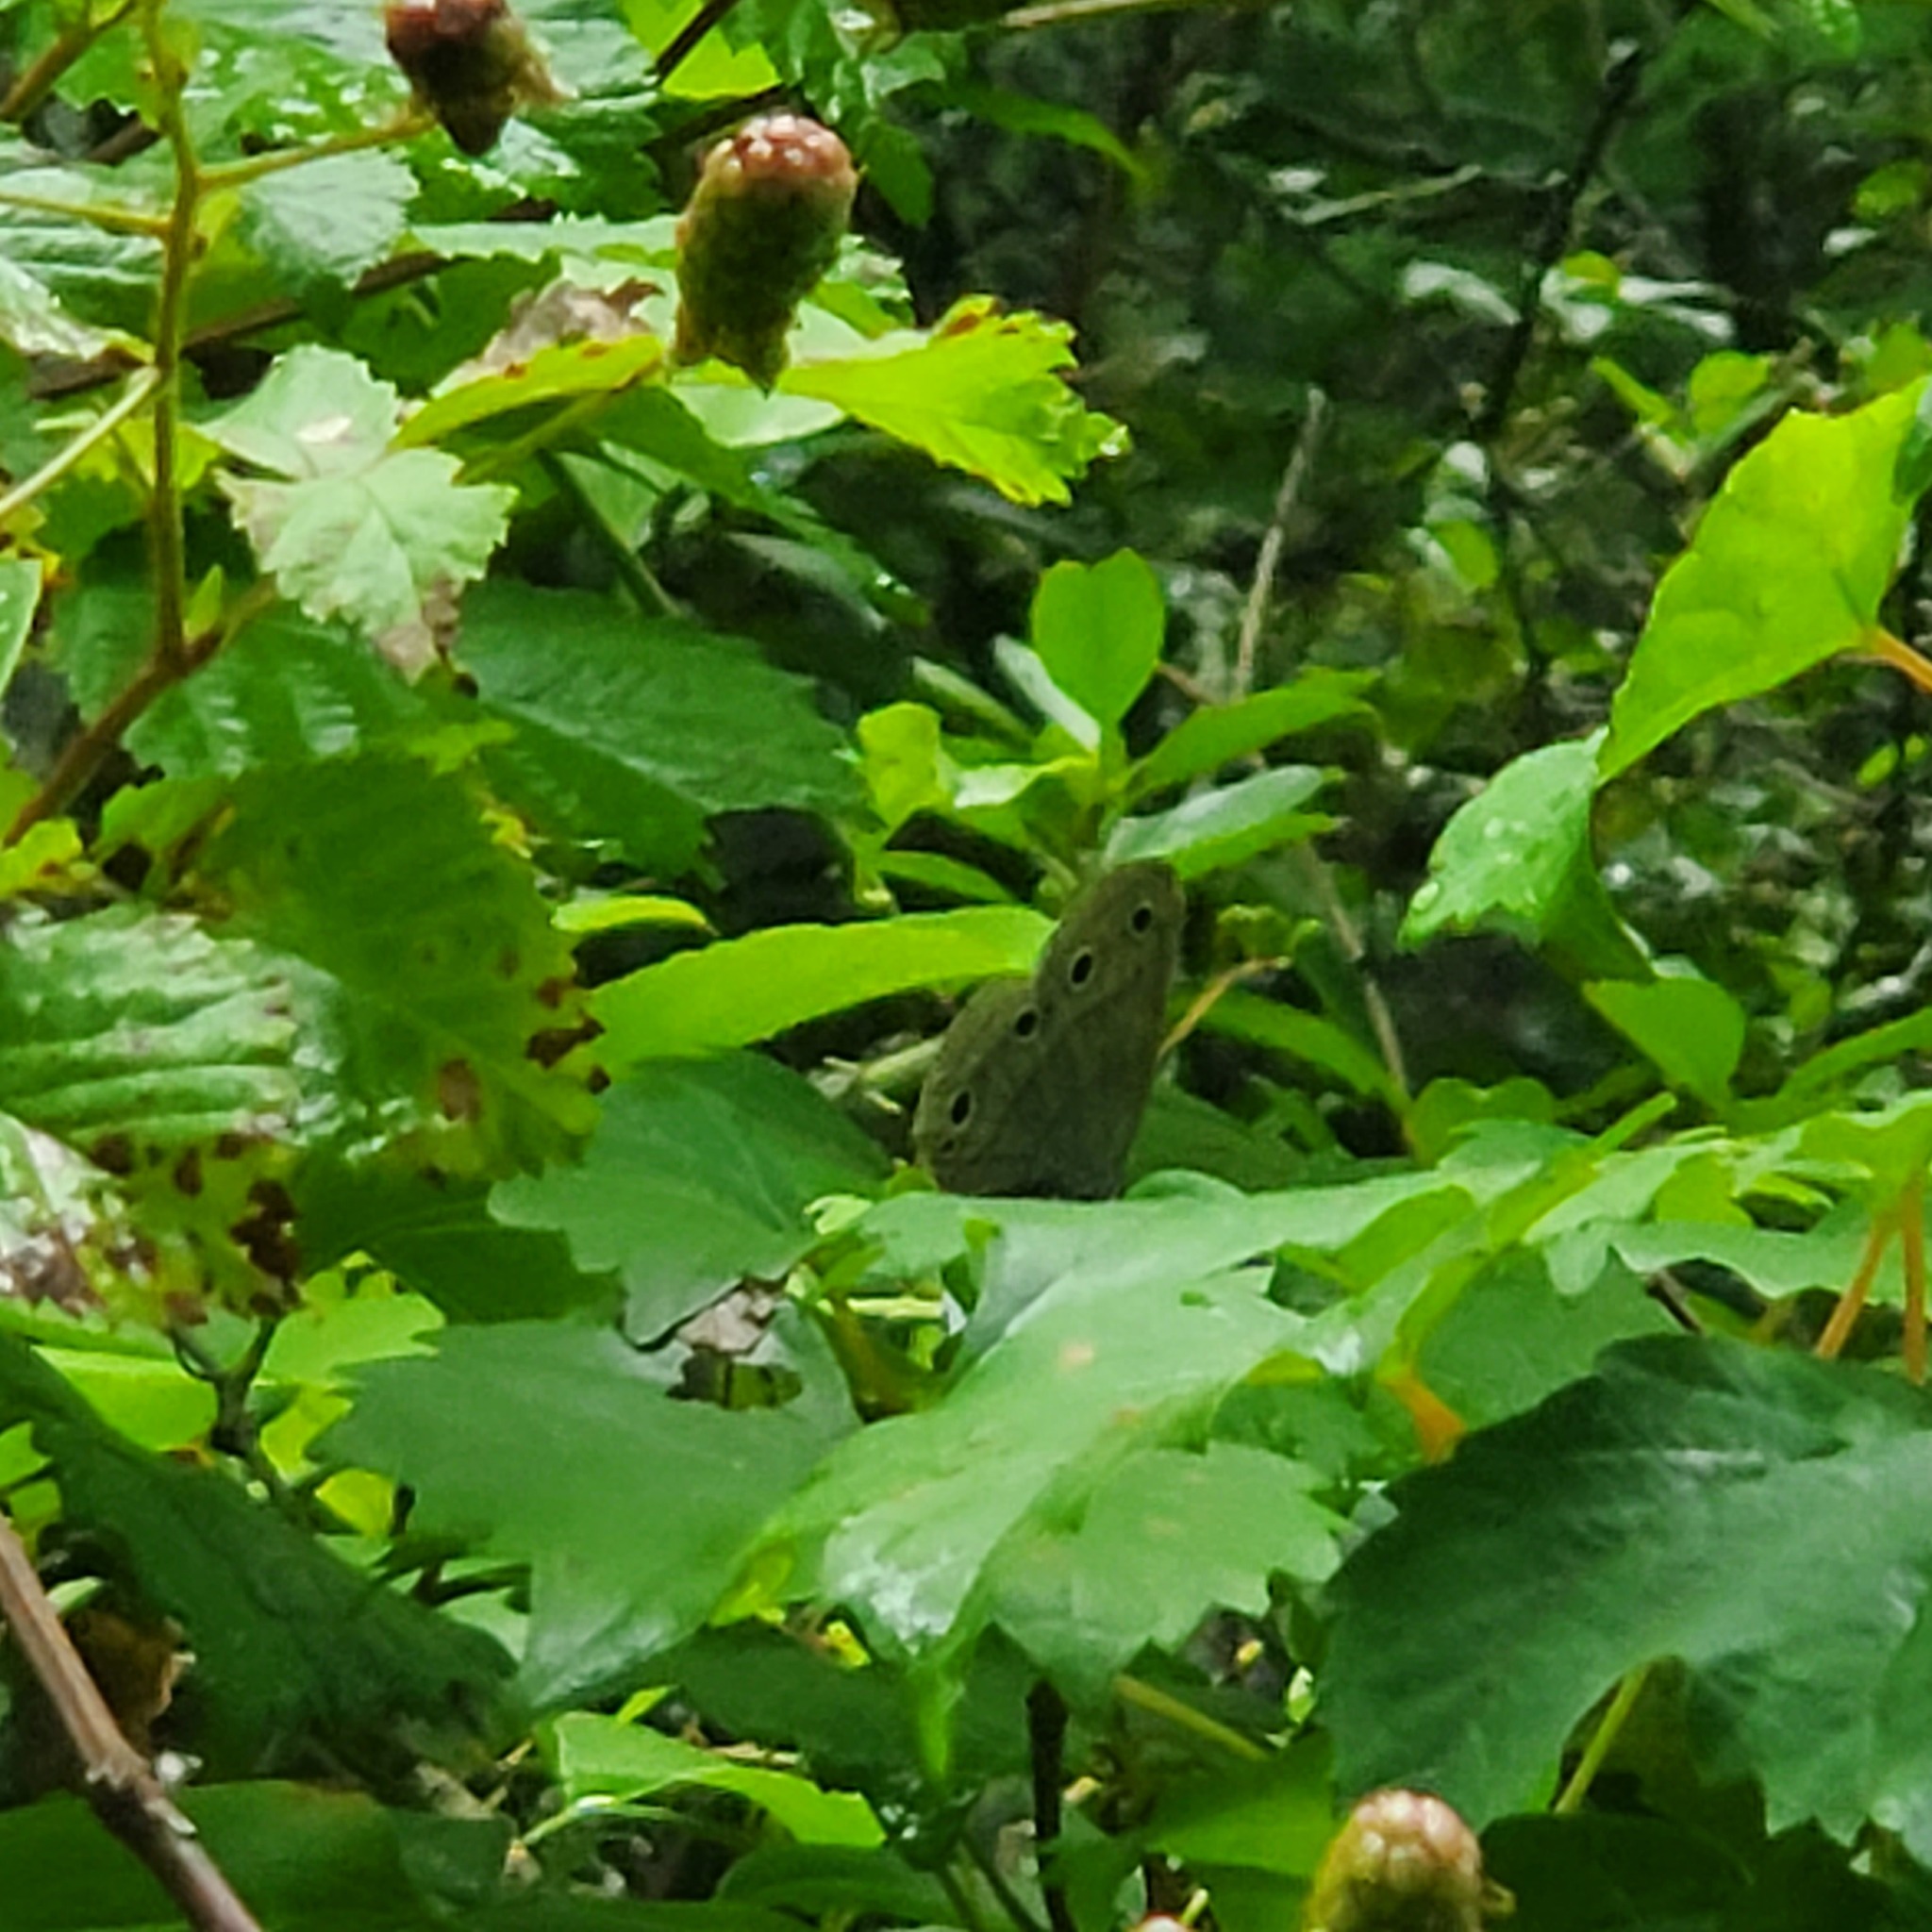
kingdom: Animalia
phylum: Arthropoda
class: Insecta
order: Lepidoptera
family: Nymphalidae
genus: Euptychia
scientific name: Euptychia cymela
